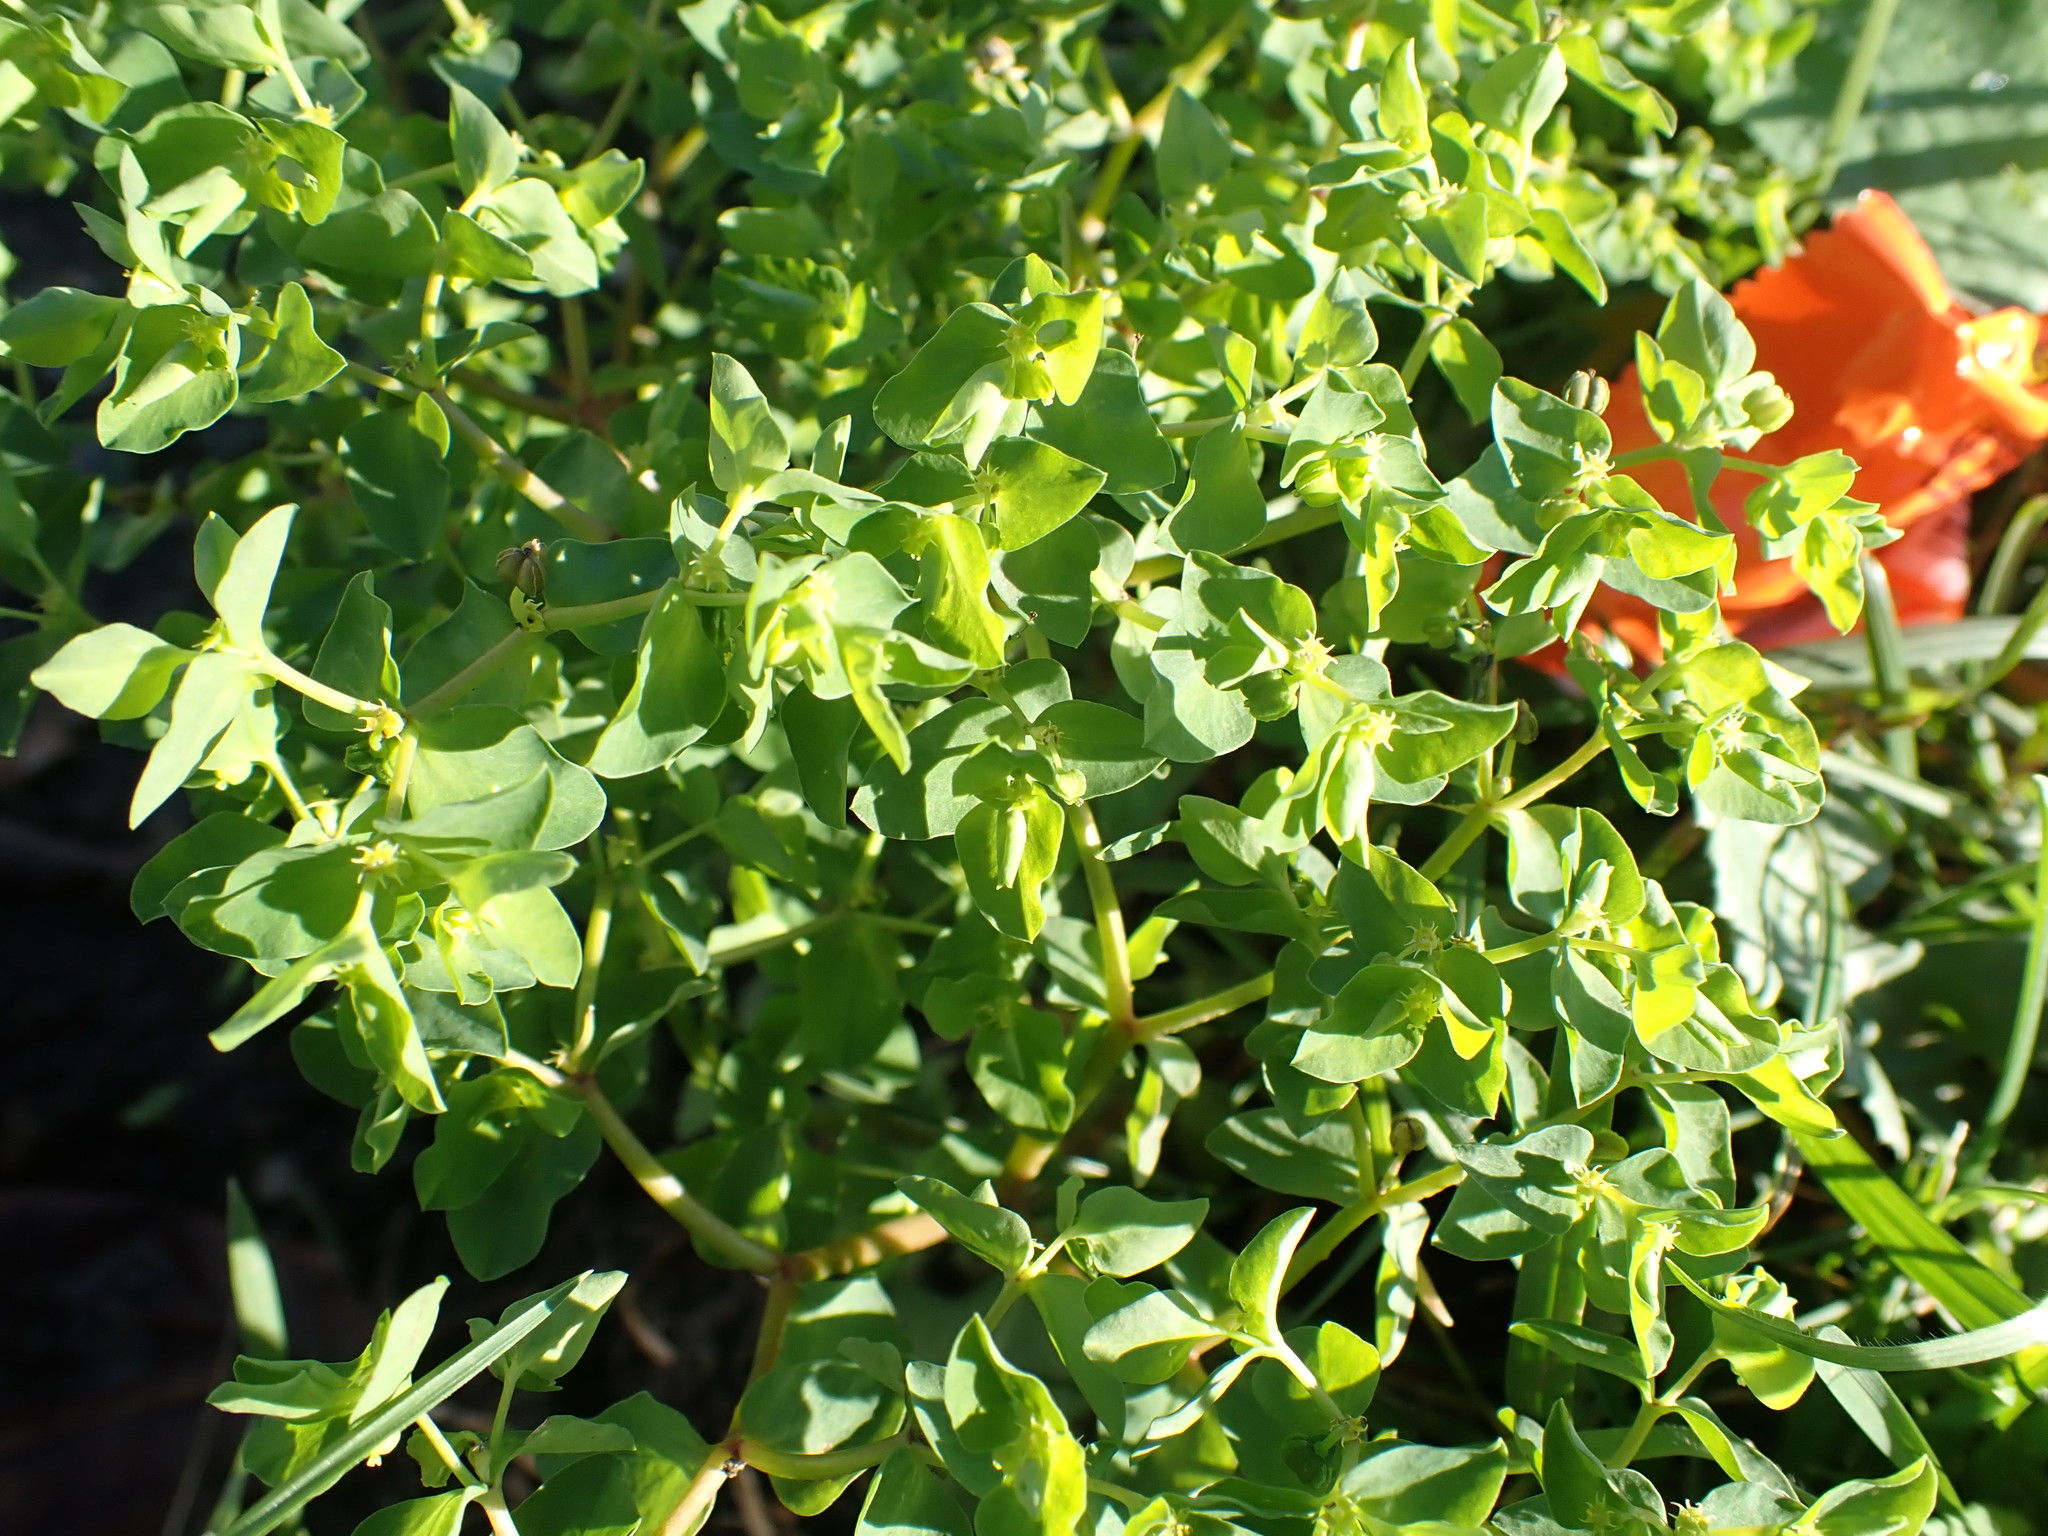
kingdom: Plantae
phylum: Tracheophyta
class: Magnoliopsida
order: Malpighiales
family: Euphorbiaceae
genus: Euphorbia
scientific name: Euphorbia peplus
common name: Petty spurge
